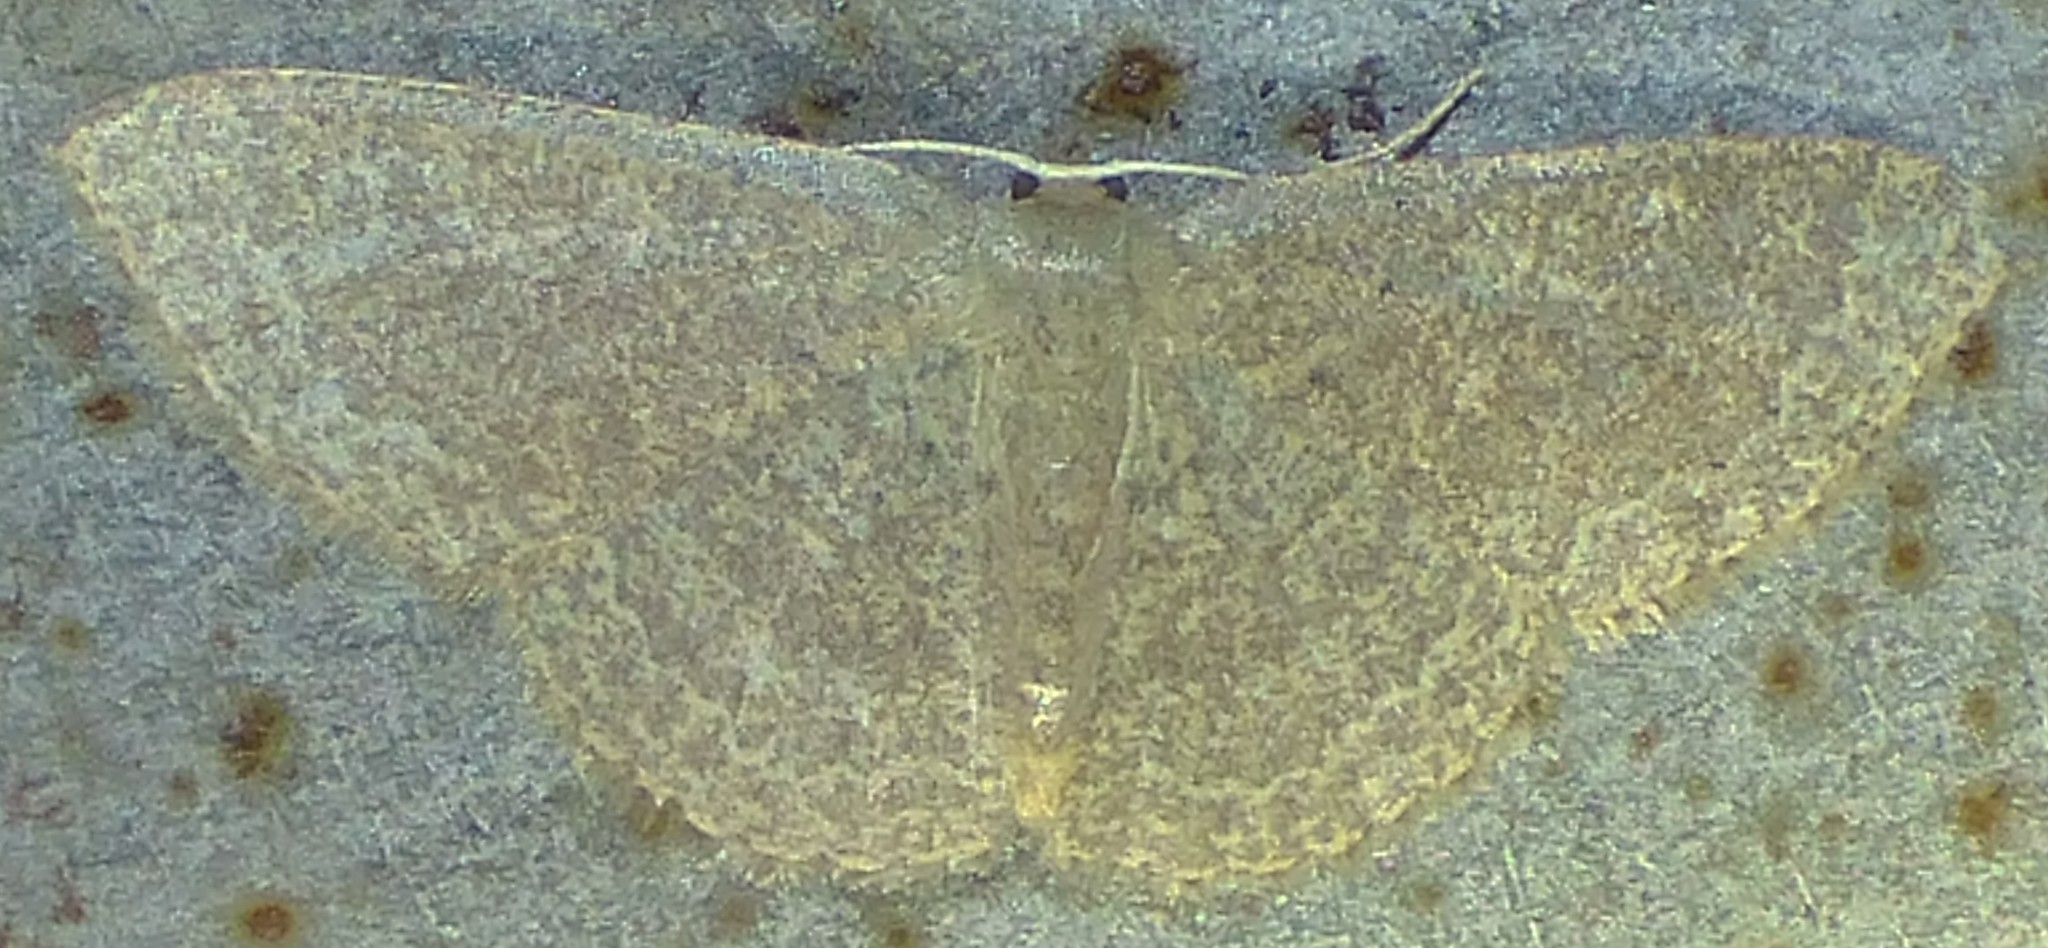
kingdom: Animalia
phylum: Arthropoda
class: Insecta
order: Lepidoptera
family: Geometridae
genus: Pleuroprucha
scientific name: Pleuroprucha insulsaria
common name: Common tan wave
